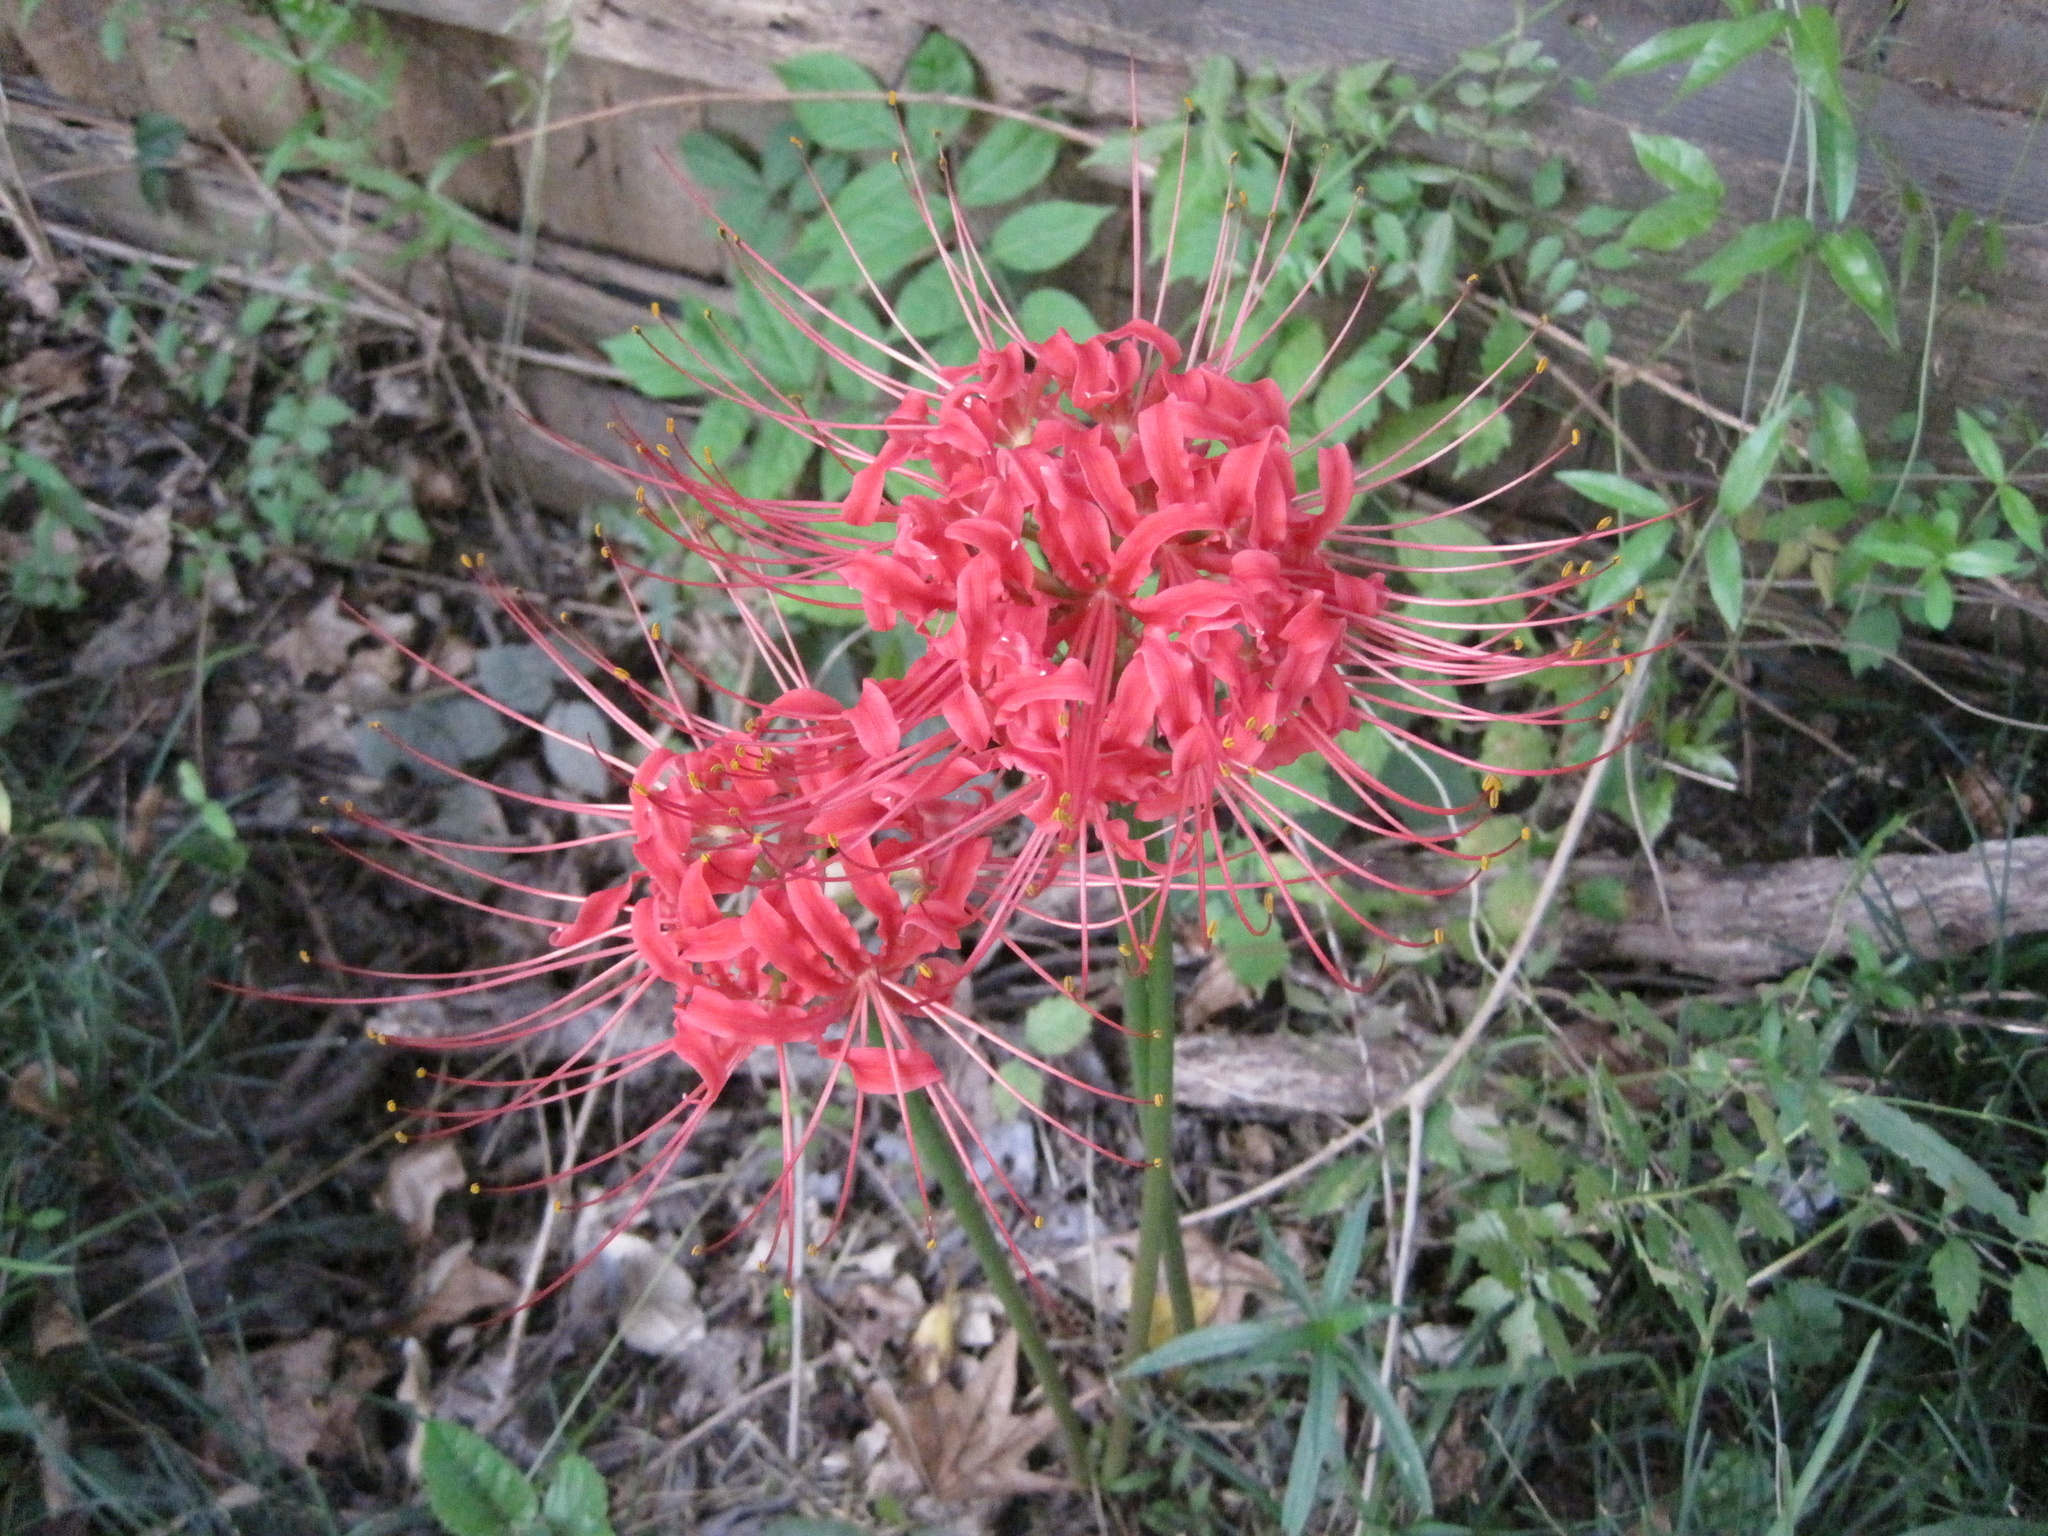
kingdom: Plantae
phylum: Tracheophyta
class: Liliopsida
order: Asparagales
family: Amaryllidaceae
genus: Lycoris
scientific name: Lycoris radiata
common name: Red spider lily
